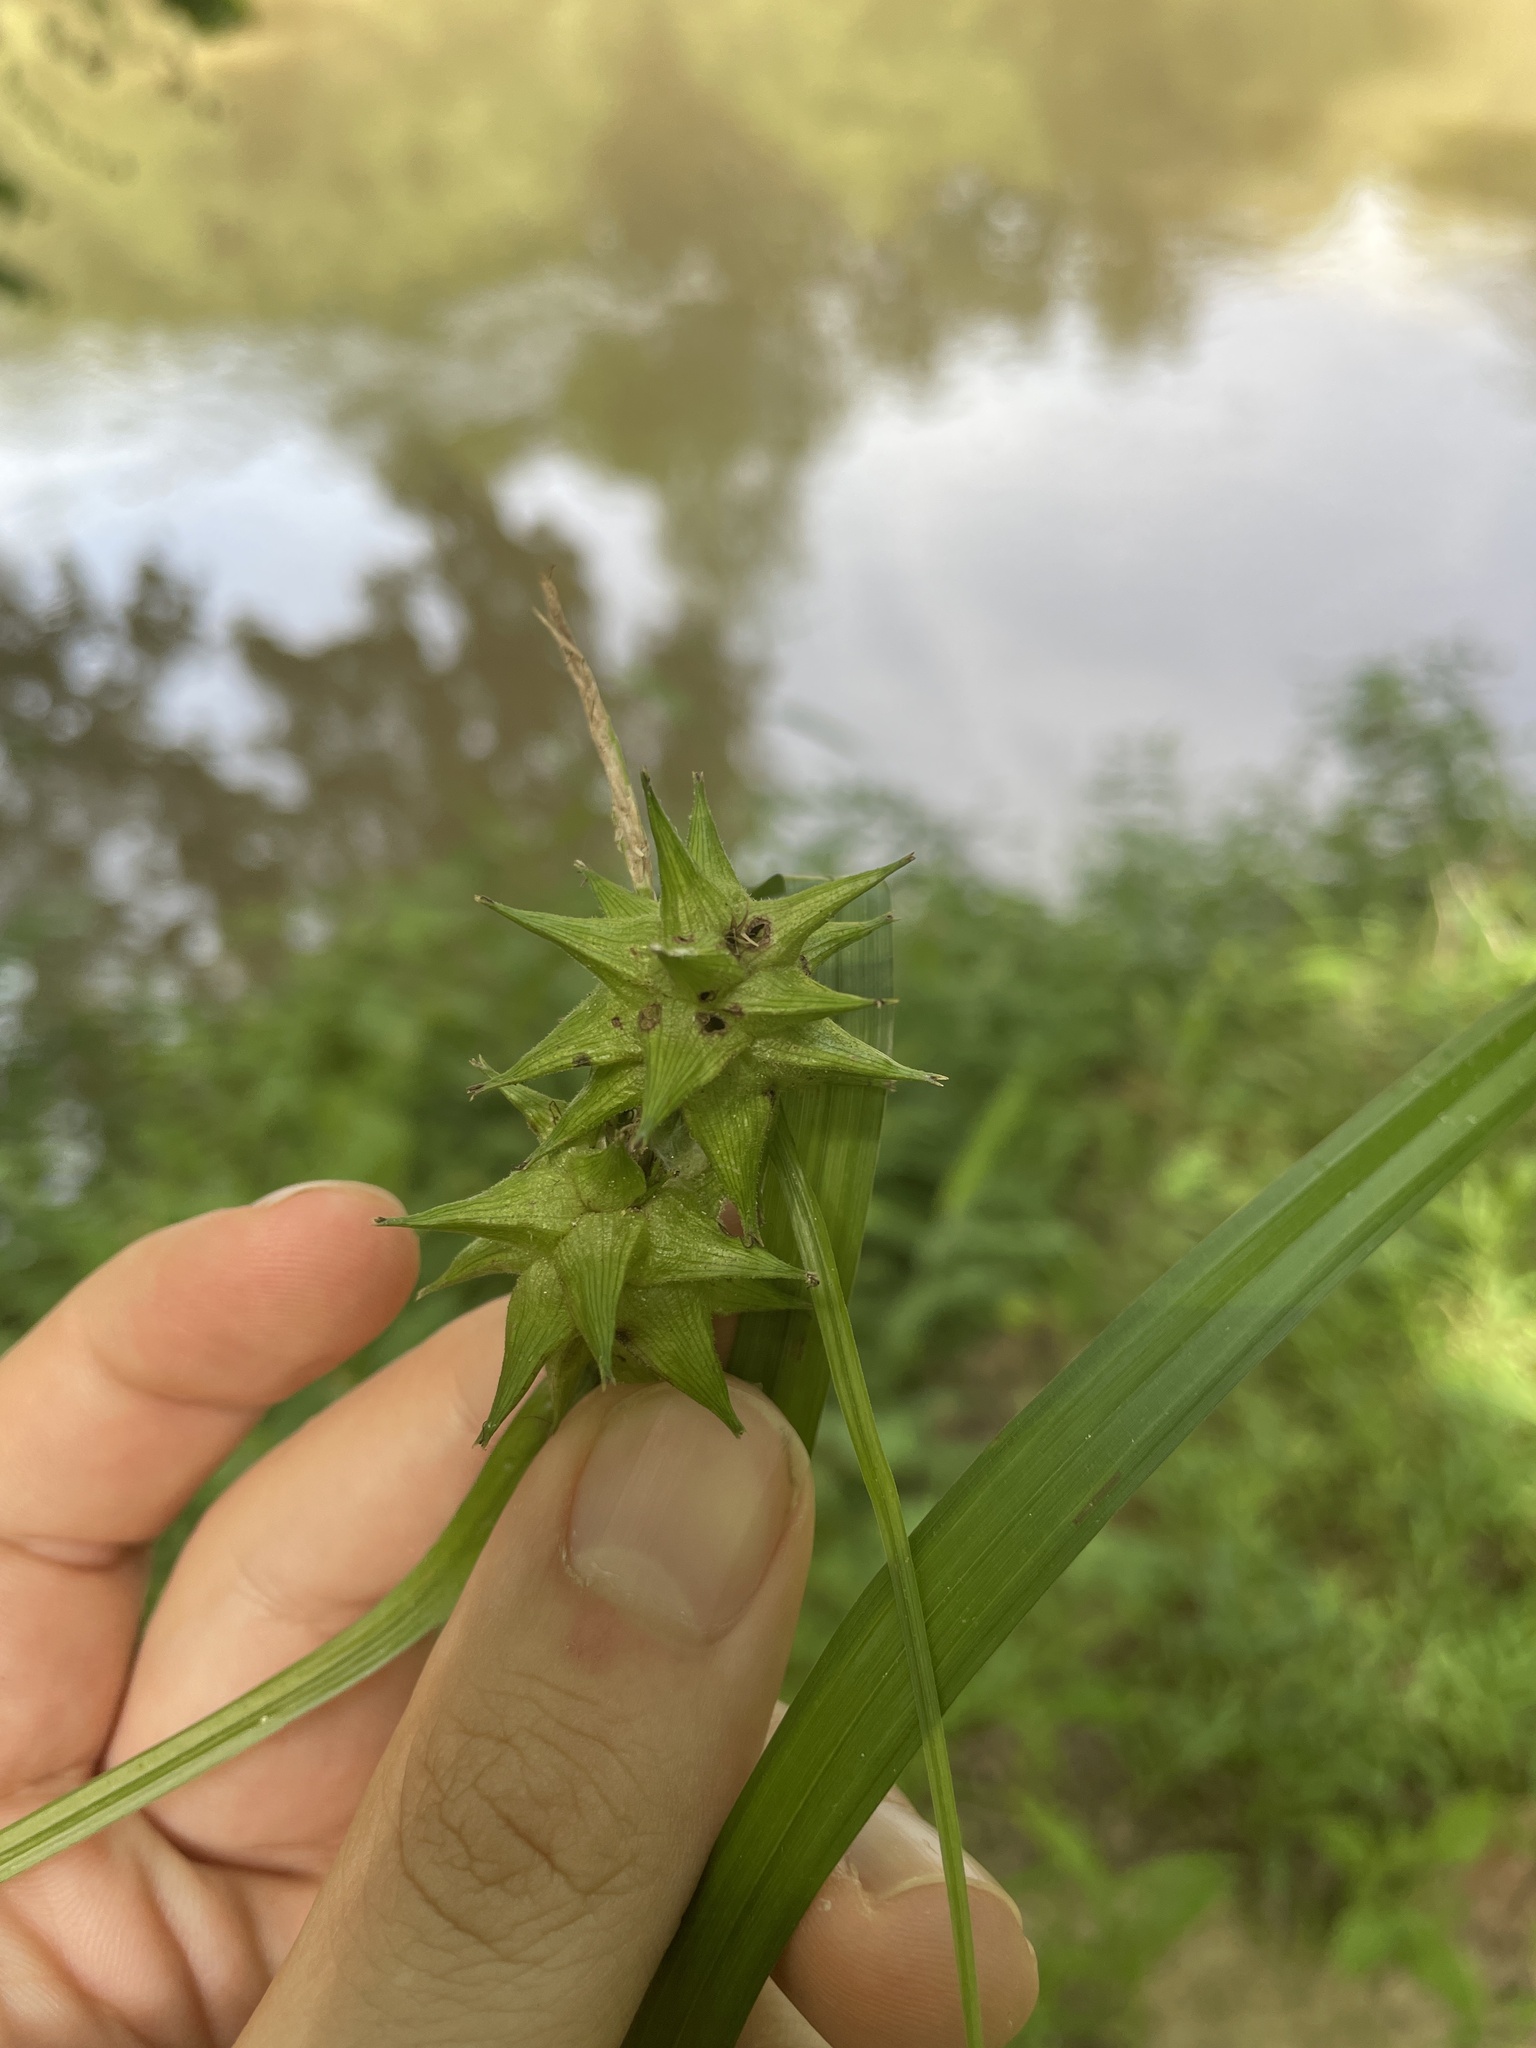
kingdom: Plantae
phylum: Tracheophyta
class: Liliopsida
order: Poales
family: Cyperaceae
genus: Carex
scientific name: Carex grayi
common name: Asa gray's sedge
